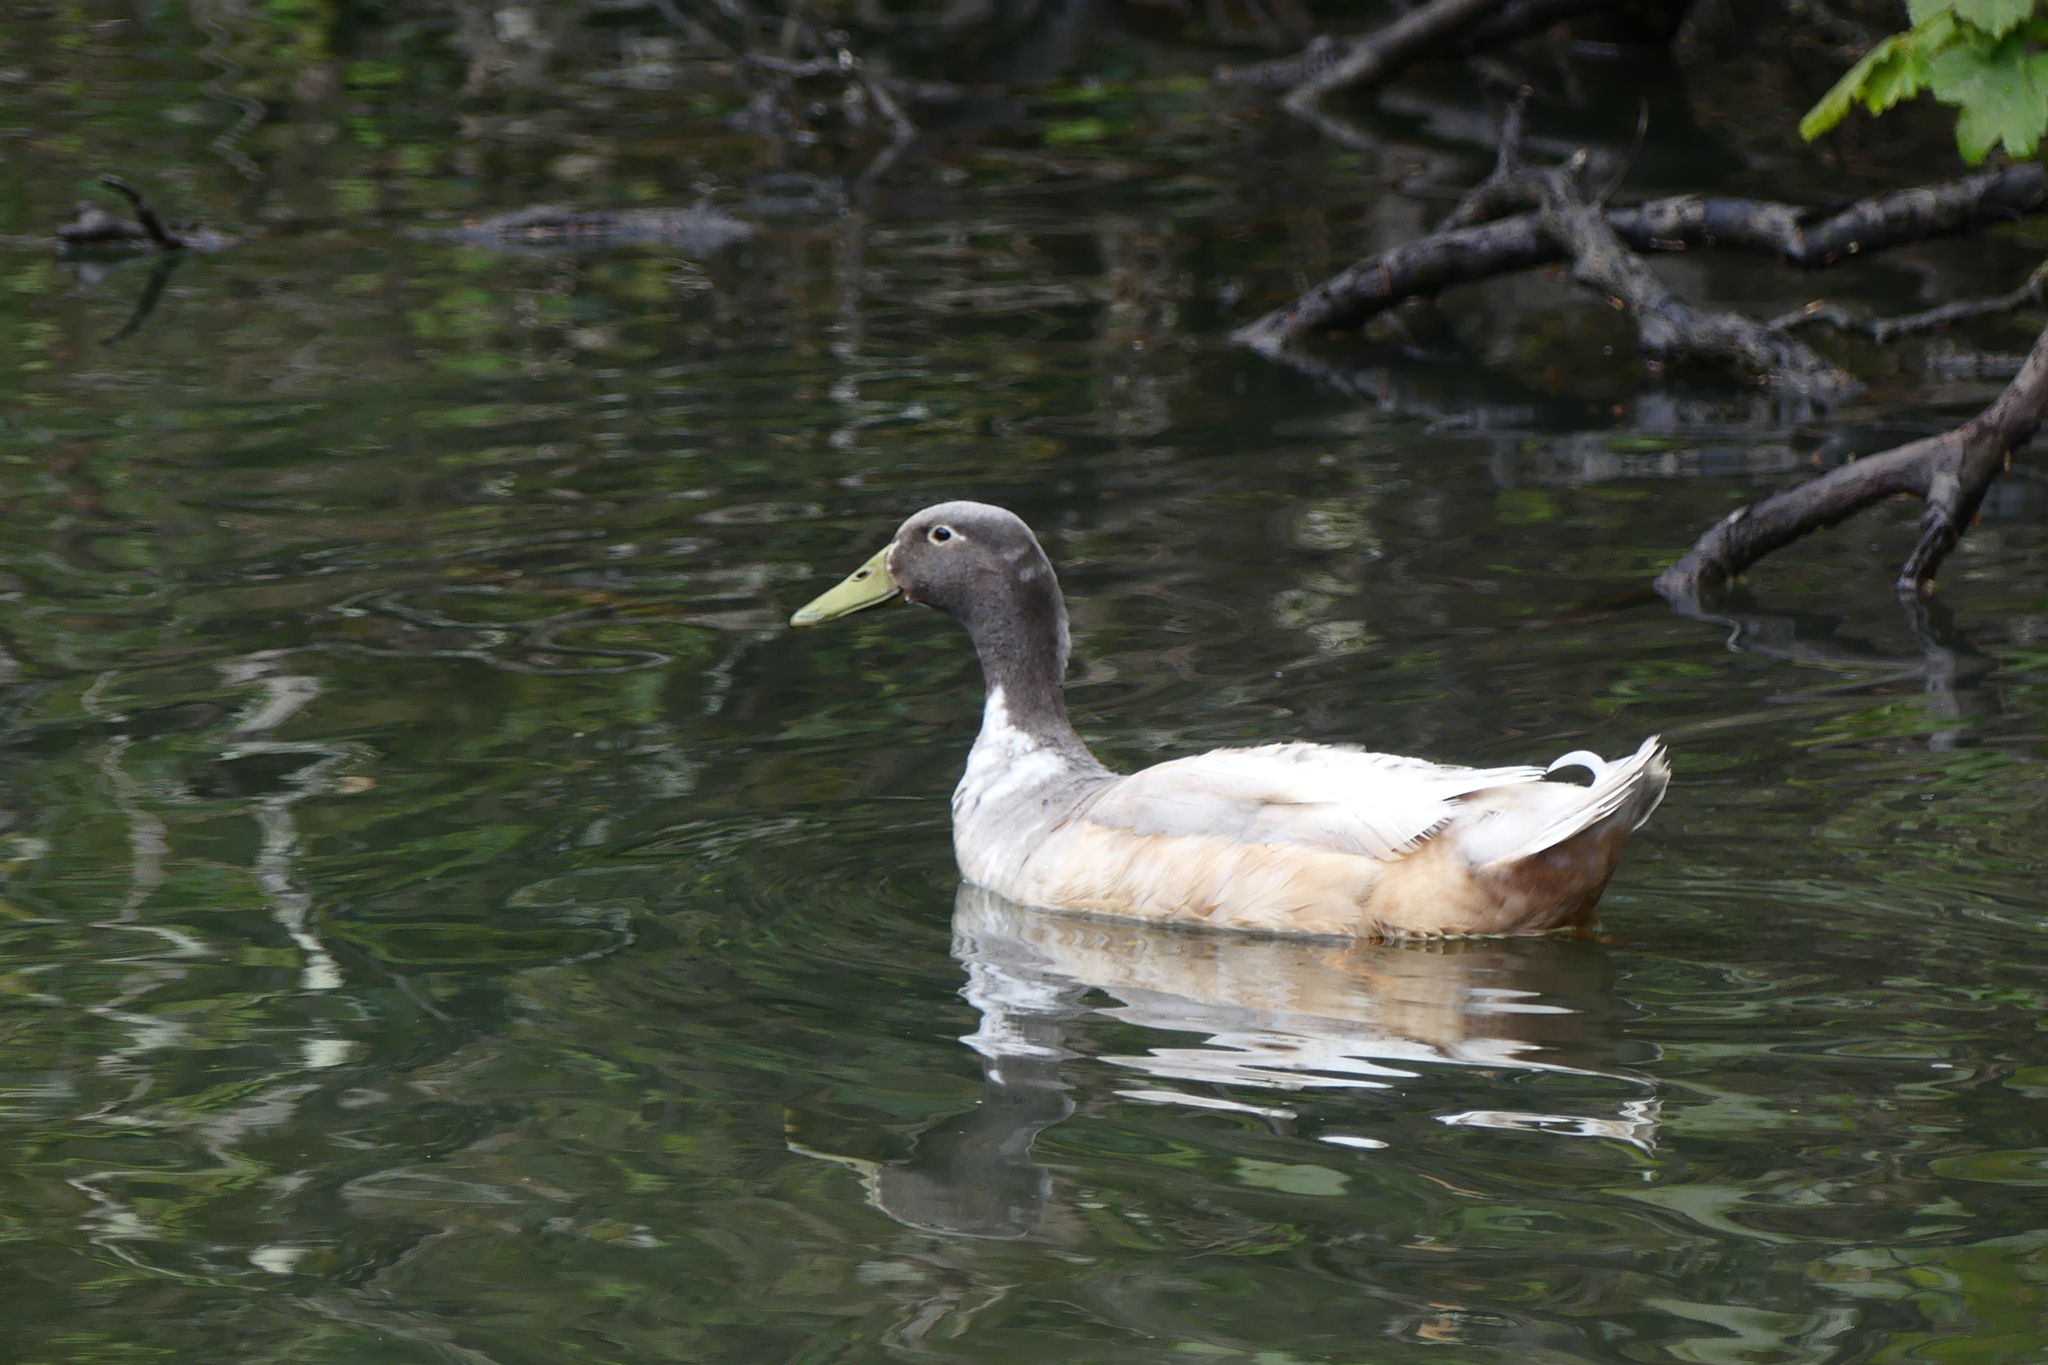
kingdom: Animalia
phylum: Chordata
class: Aves
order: Anseriformes
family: Anatidae
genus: Anas
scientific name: Anas platyrhynchos
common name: Mallard
